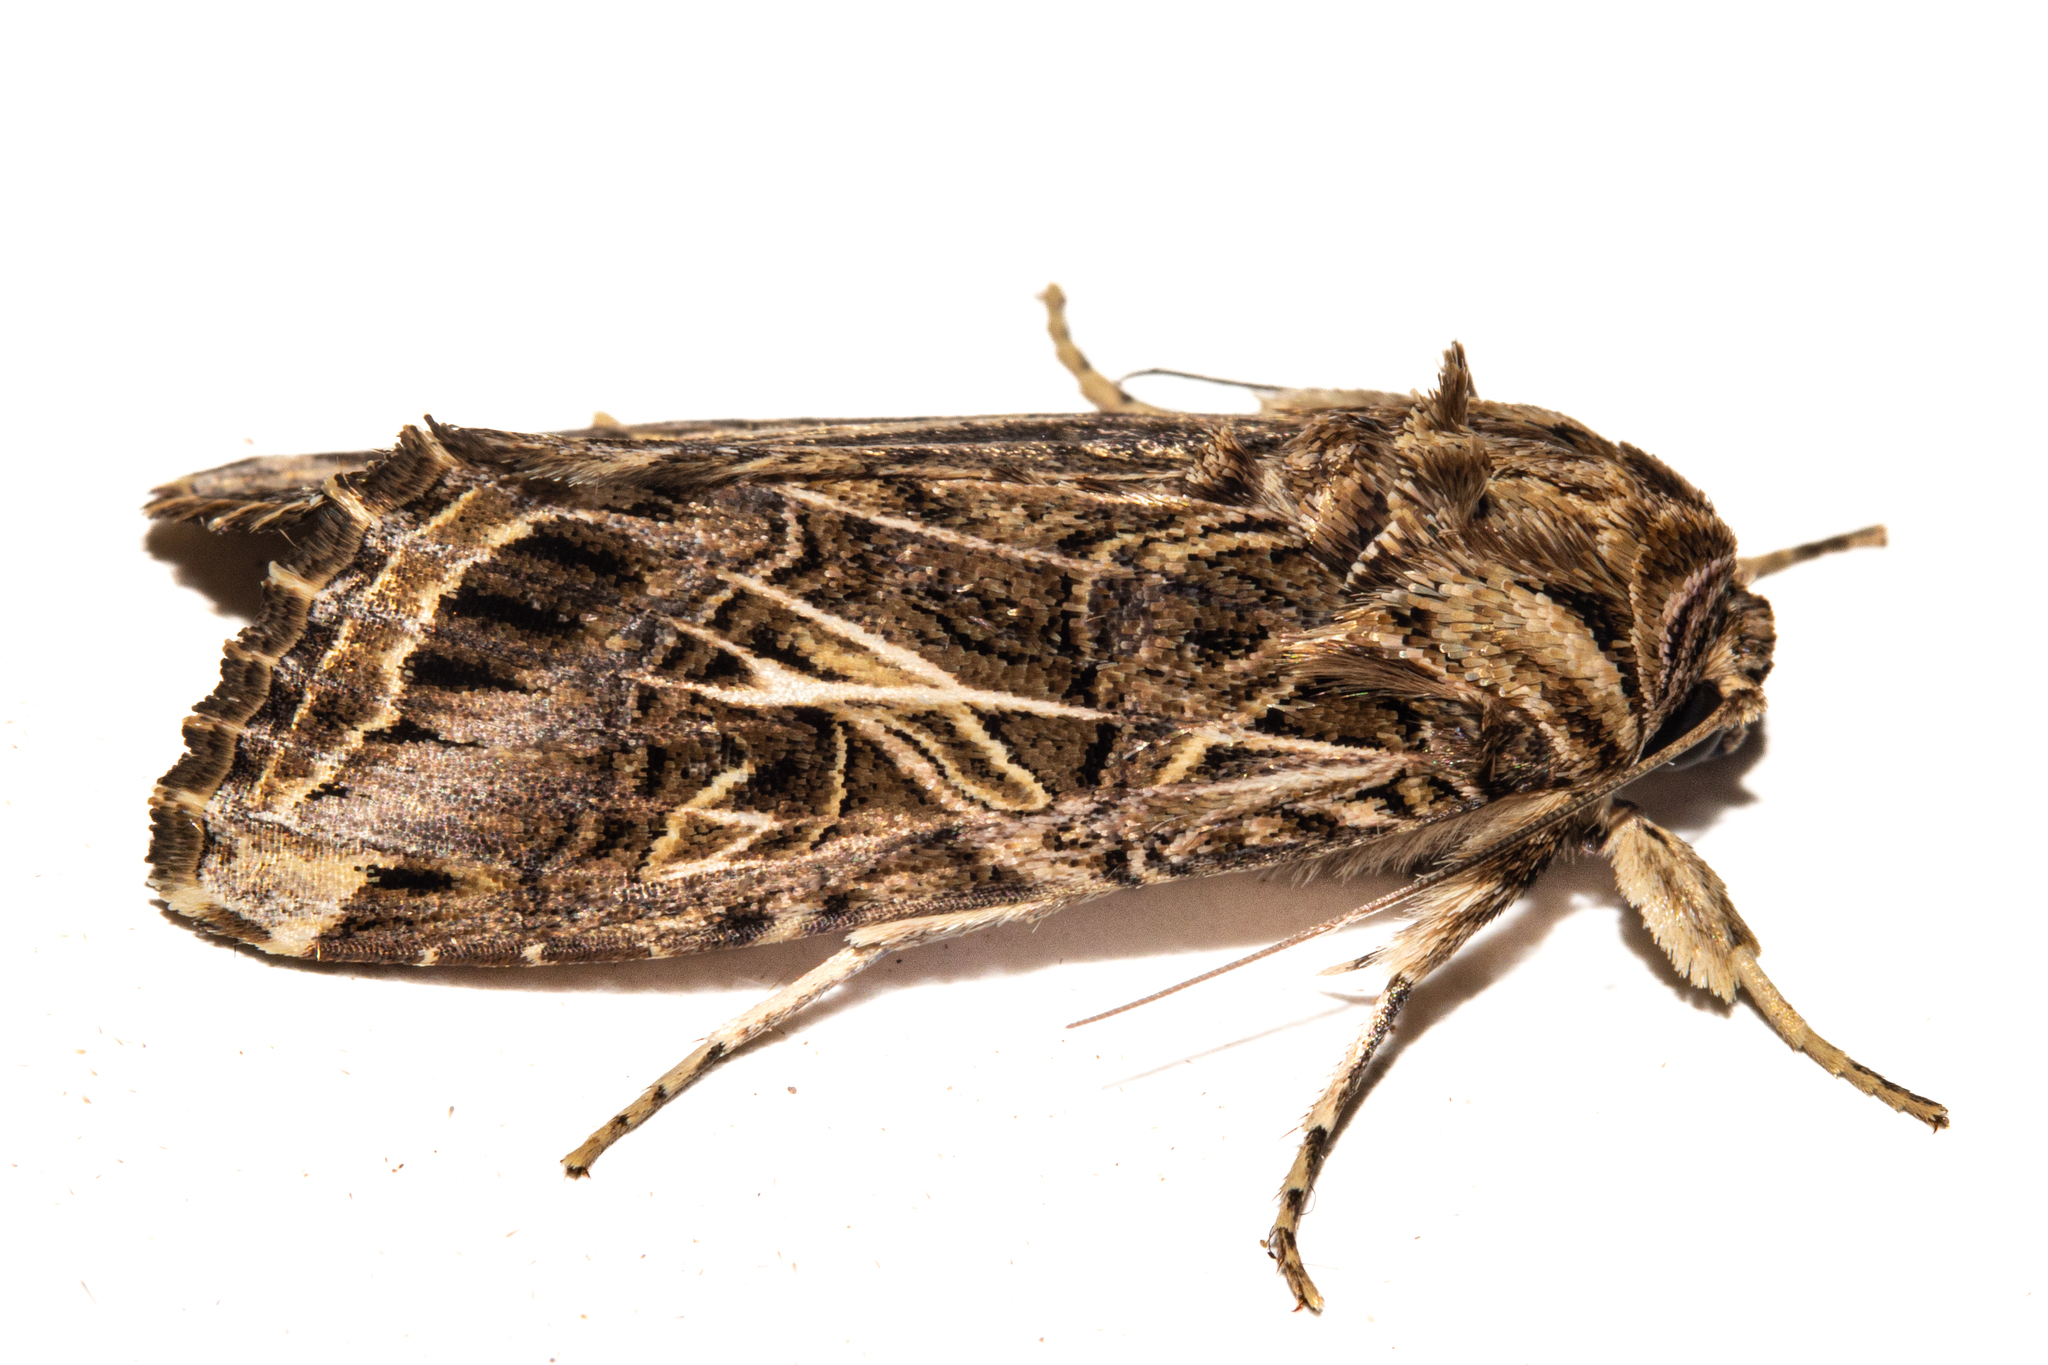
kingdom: Animalia
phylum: Arthropoda
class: Insecta
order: Lepidoptera
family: Noctuidae
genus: Spodoptera
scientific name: Spodoptera litura
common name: Asian cotton leafworm
